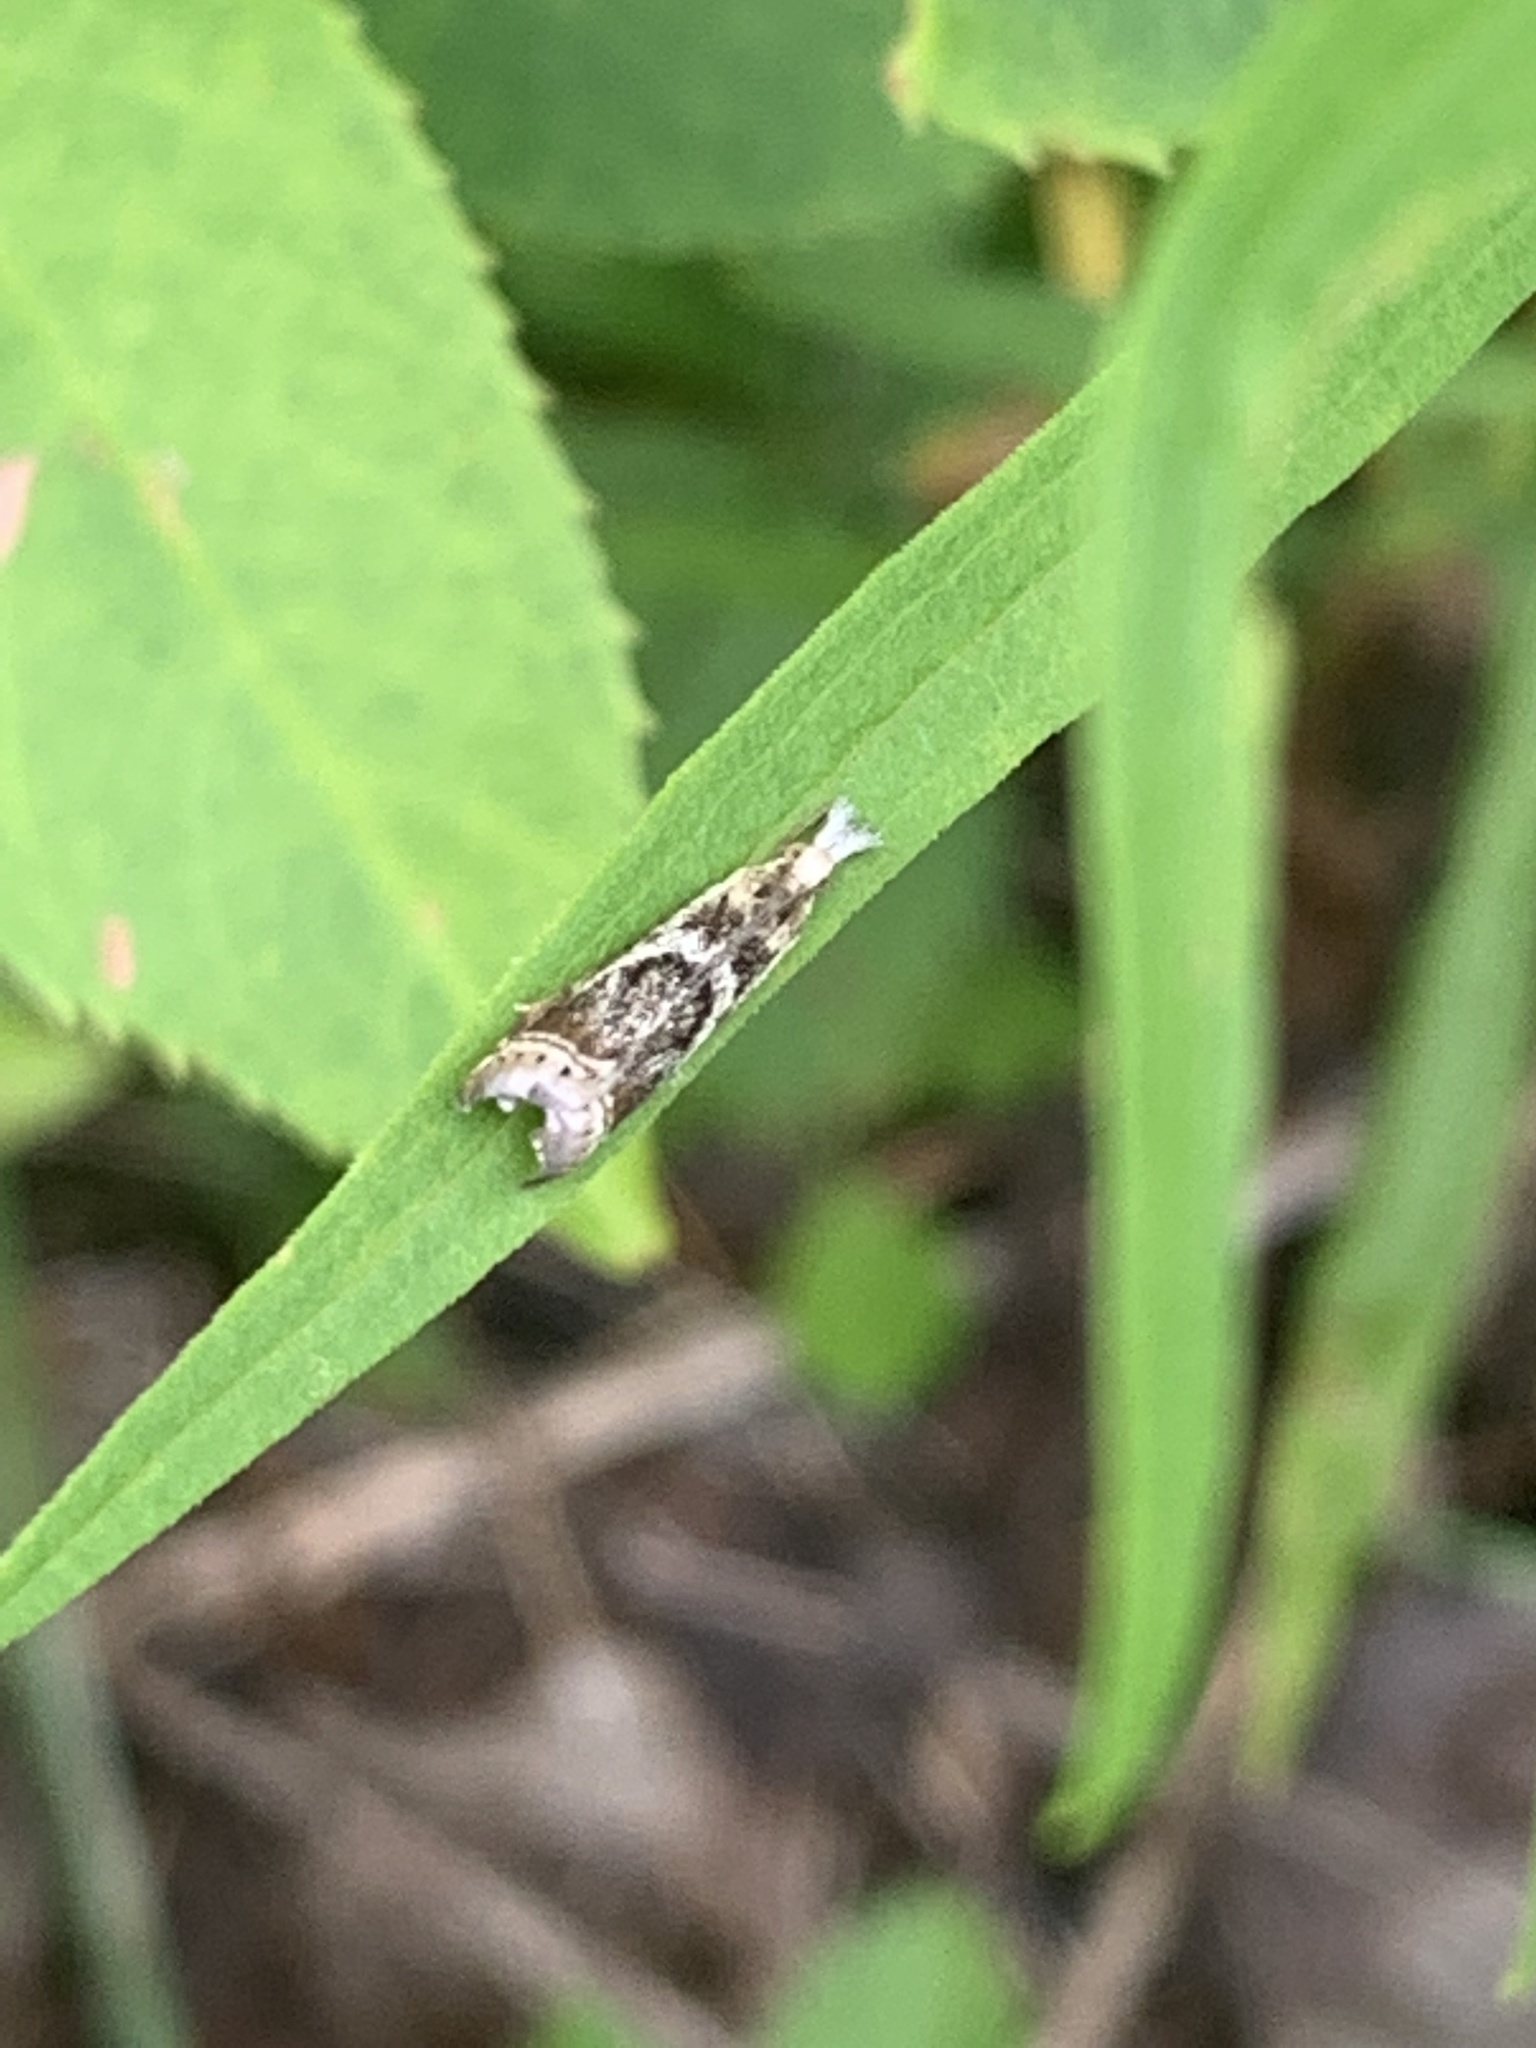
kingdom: Animalia
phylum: Arthropoda
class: Insecta
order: Lepidoptera
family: Crambidae
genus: Microcrambus
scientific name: Microcrambus elegans
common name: Elegant grass-veneer
